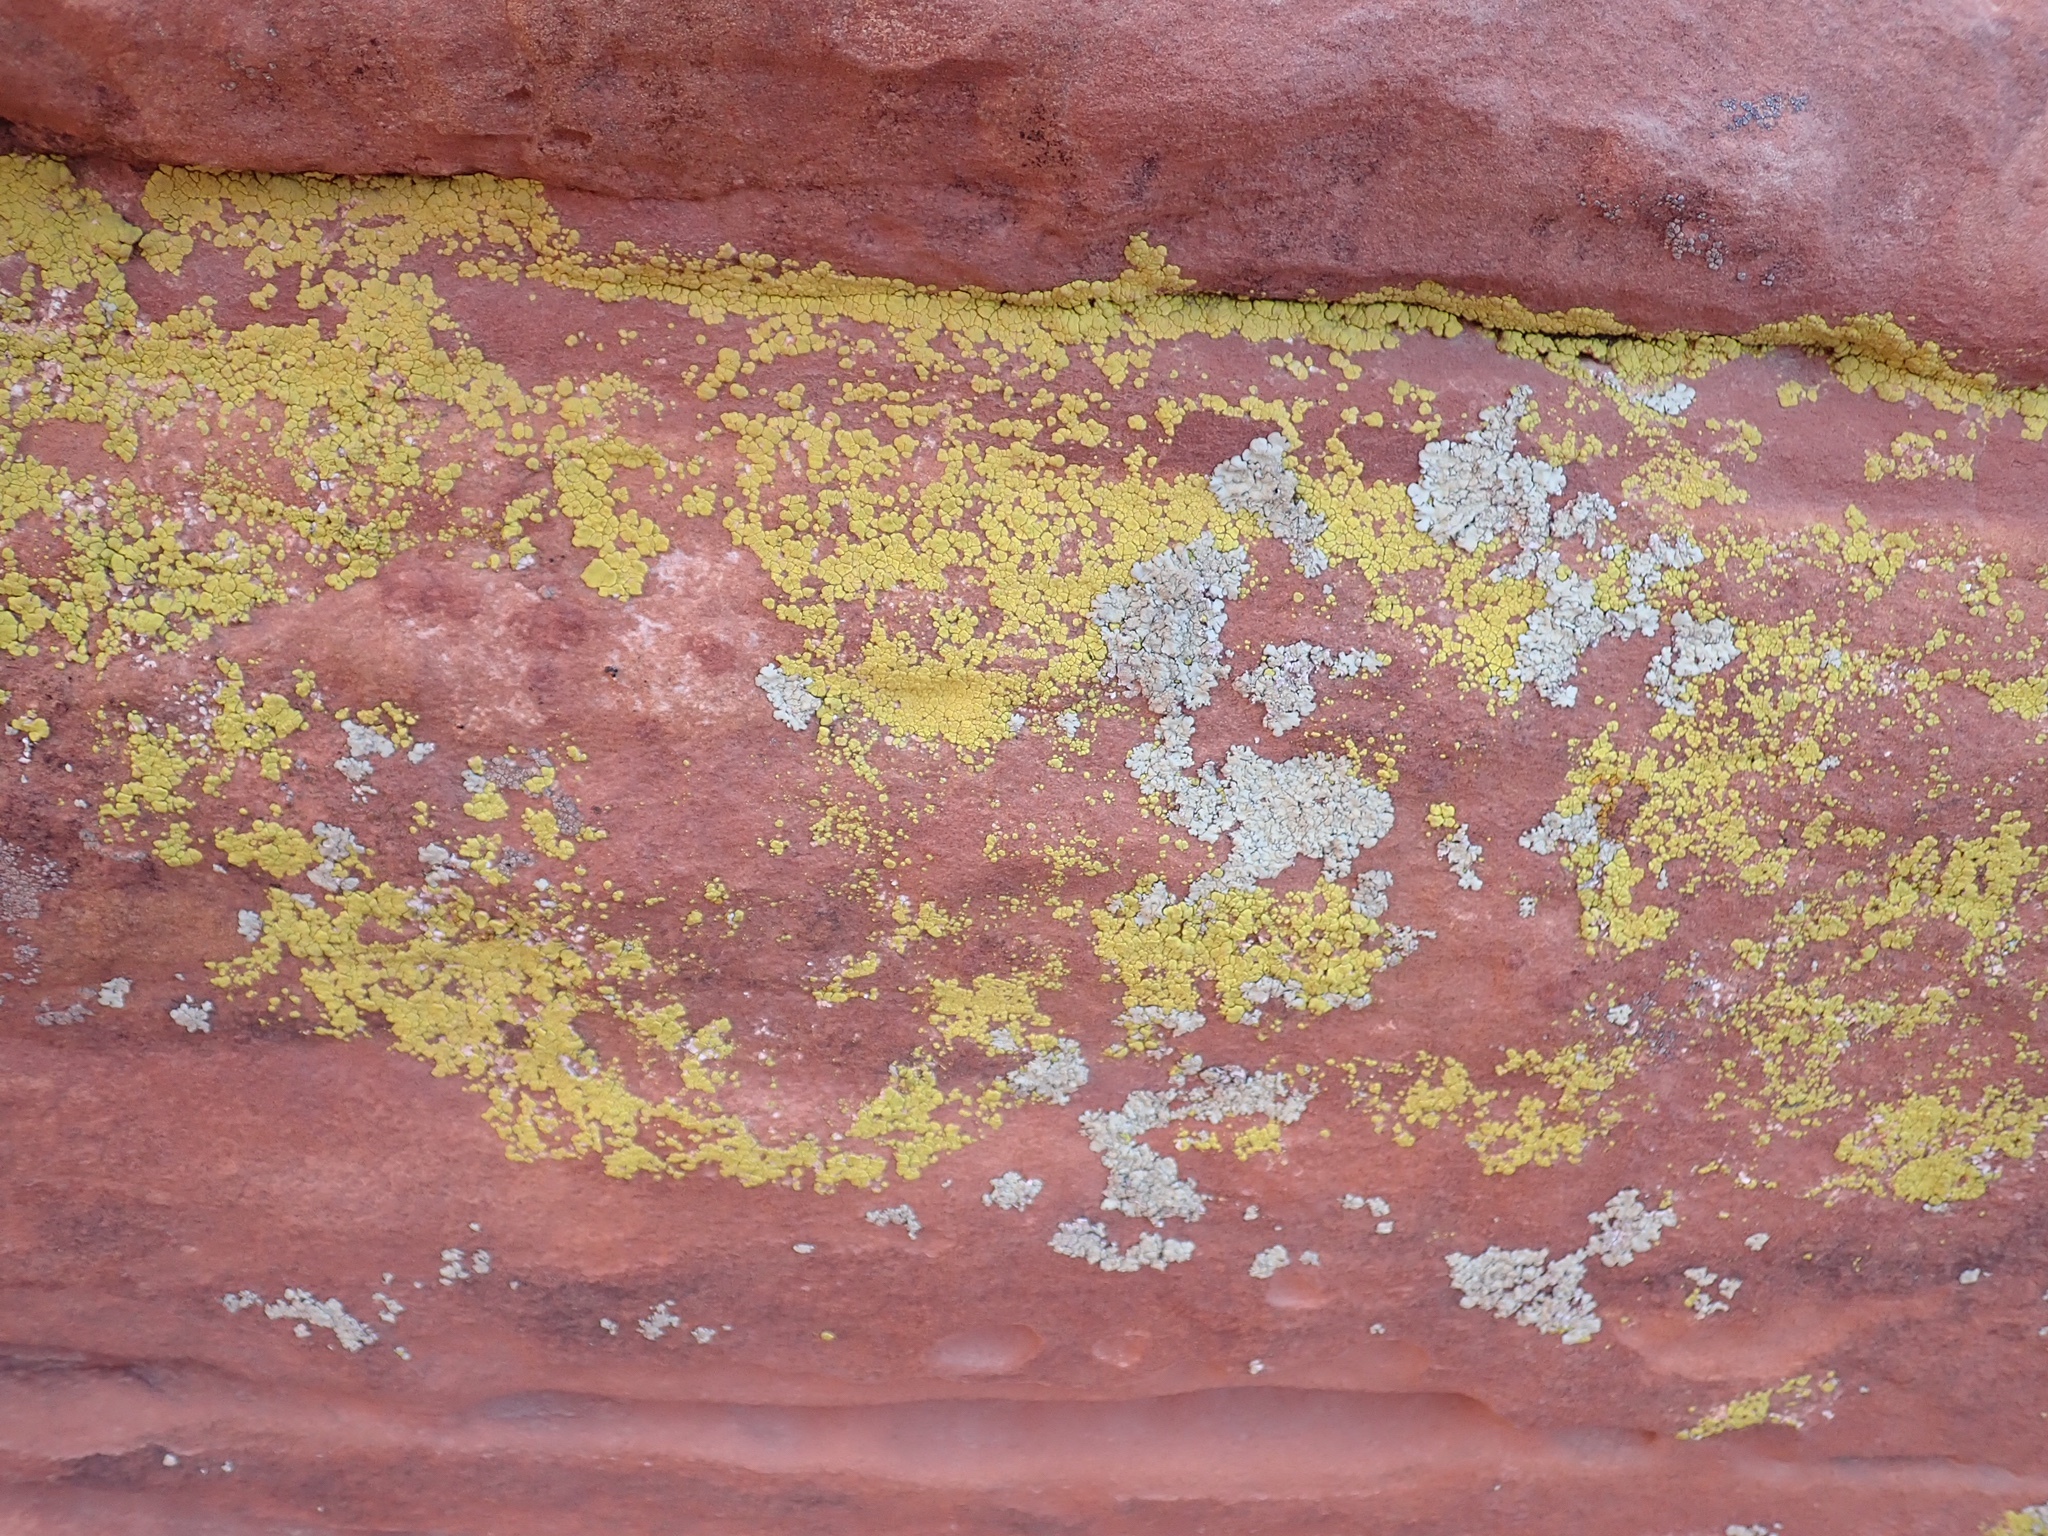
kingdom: Fungi
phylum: Ascomycota
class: Lecanoromycetes
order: Acarosporales
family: Acarosporaceae
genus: Acarospora
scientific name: Acarospora socialis
